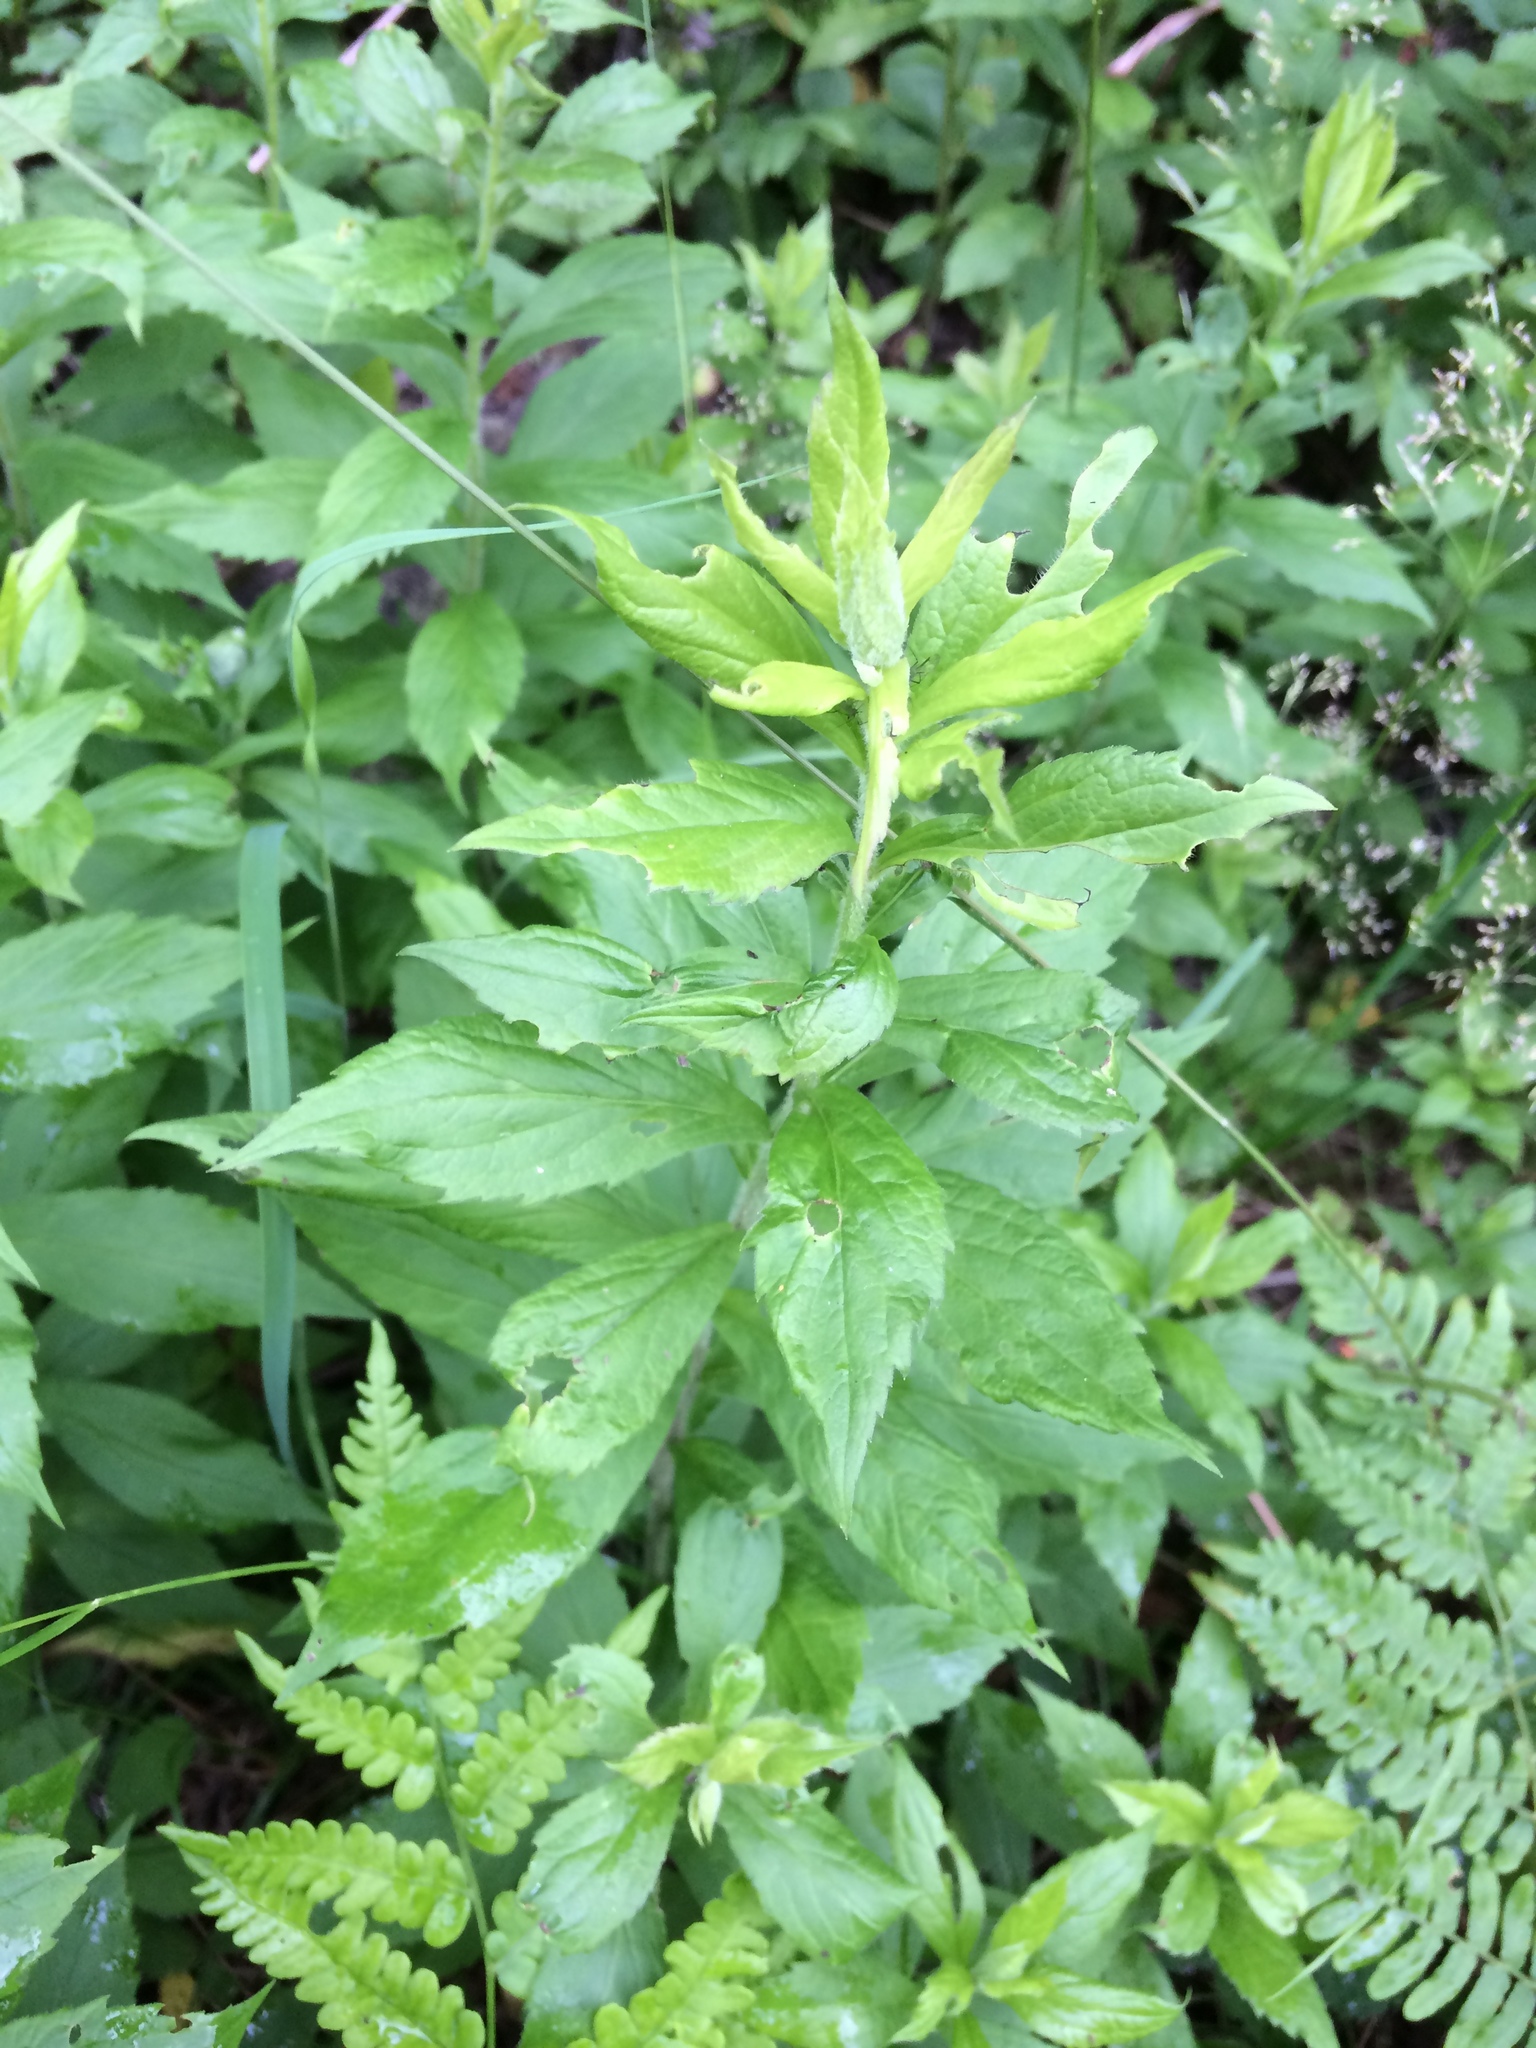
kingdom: Plantae
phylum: Tracheophyta
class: Magnoliopsida
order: Asterales
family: Asteraceae
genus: Solidago
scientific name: Solidago rugosa
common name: Rough-stemmed goldenrod
